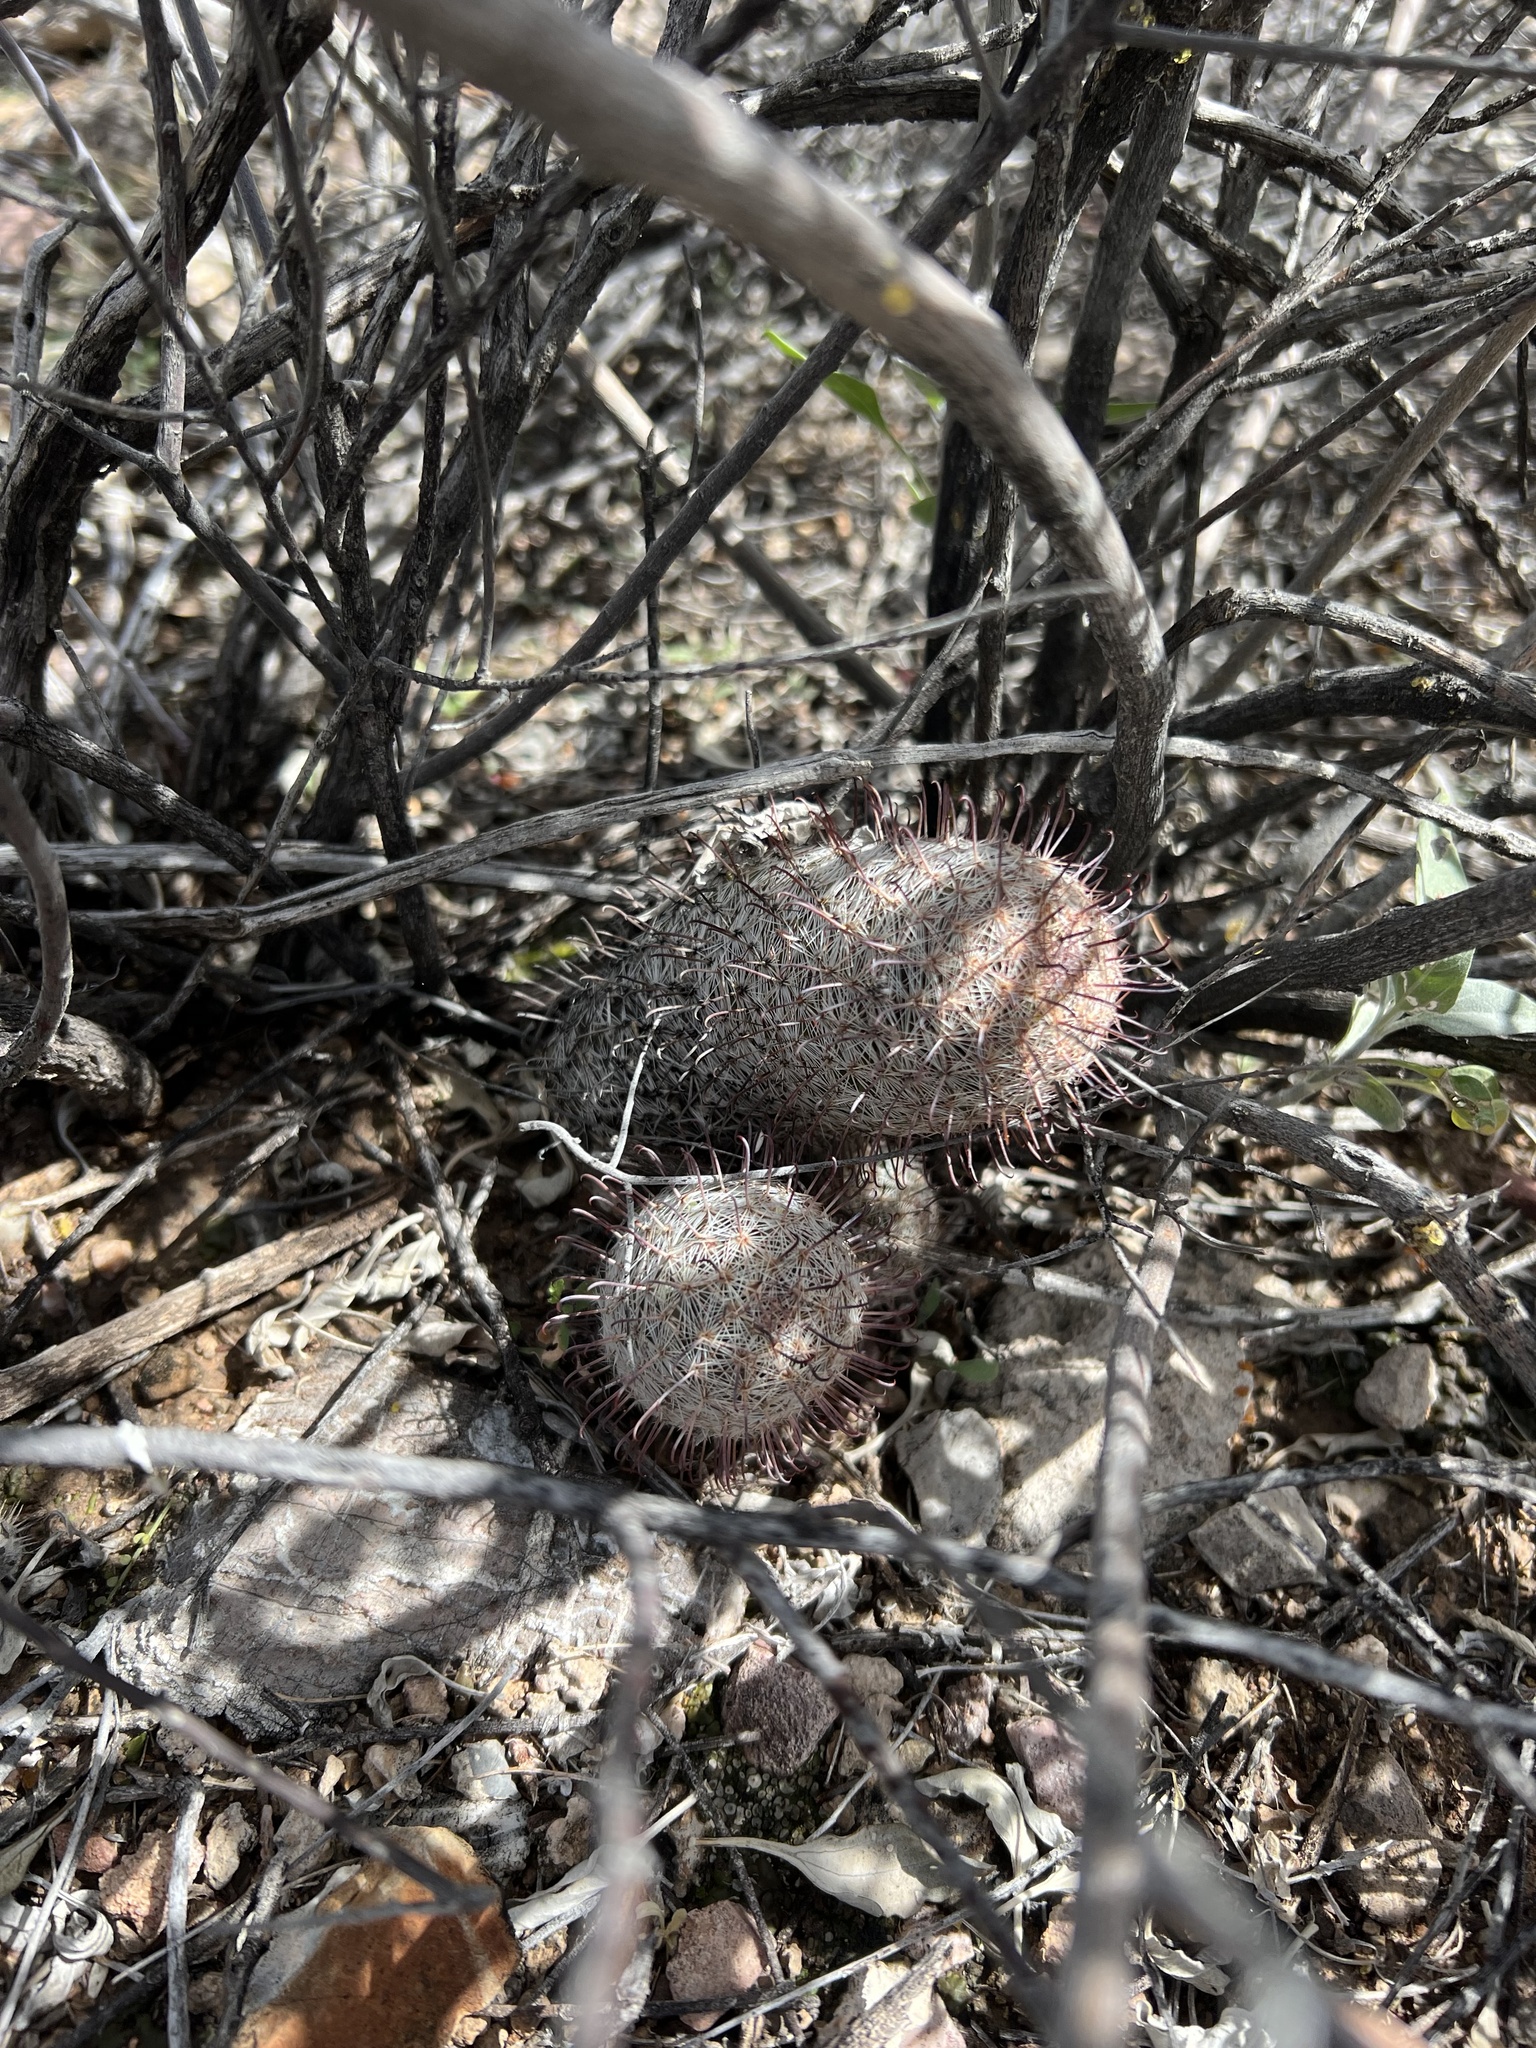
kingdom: Plantae
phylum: Tracheophyta
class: Magnoliopsida
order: Caryophyllales
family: Cactaceae
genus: Cochemiea
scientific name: Cochemiea grahamii
